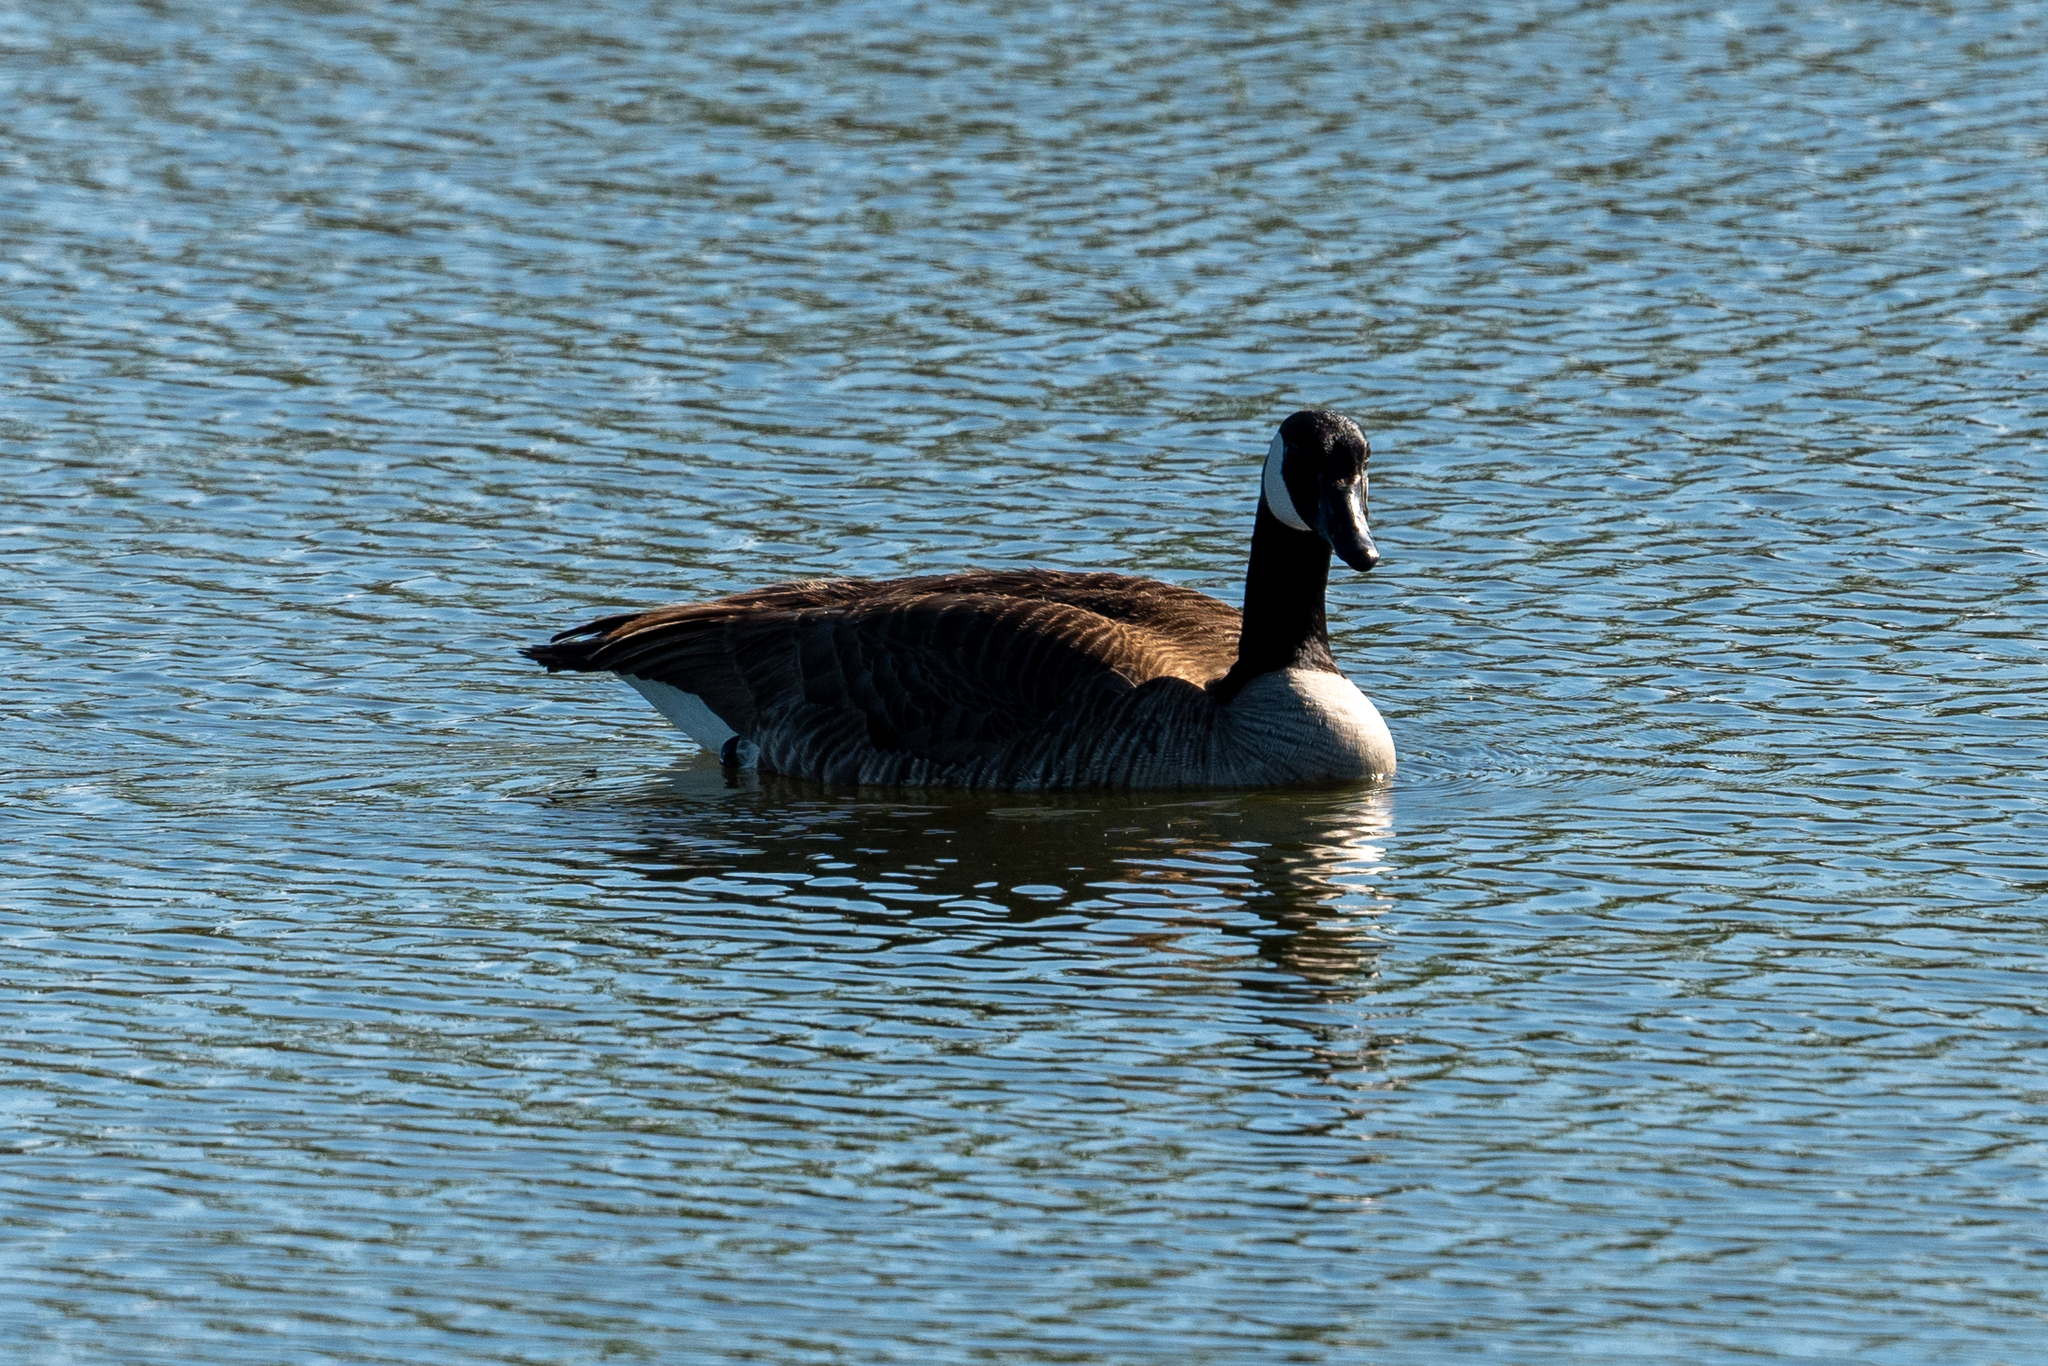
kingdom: Animalia
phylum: Chordata
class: Aves
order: Anseriformes
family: Anatidae
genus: Branta
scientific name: Branta canadensis
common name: Canada goose
